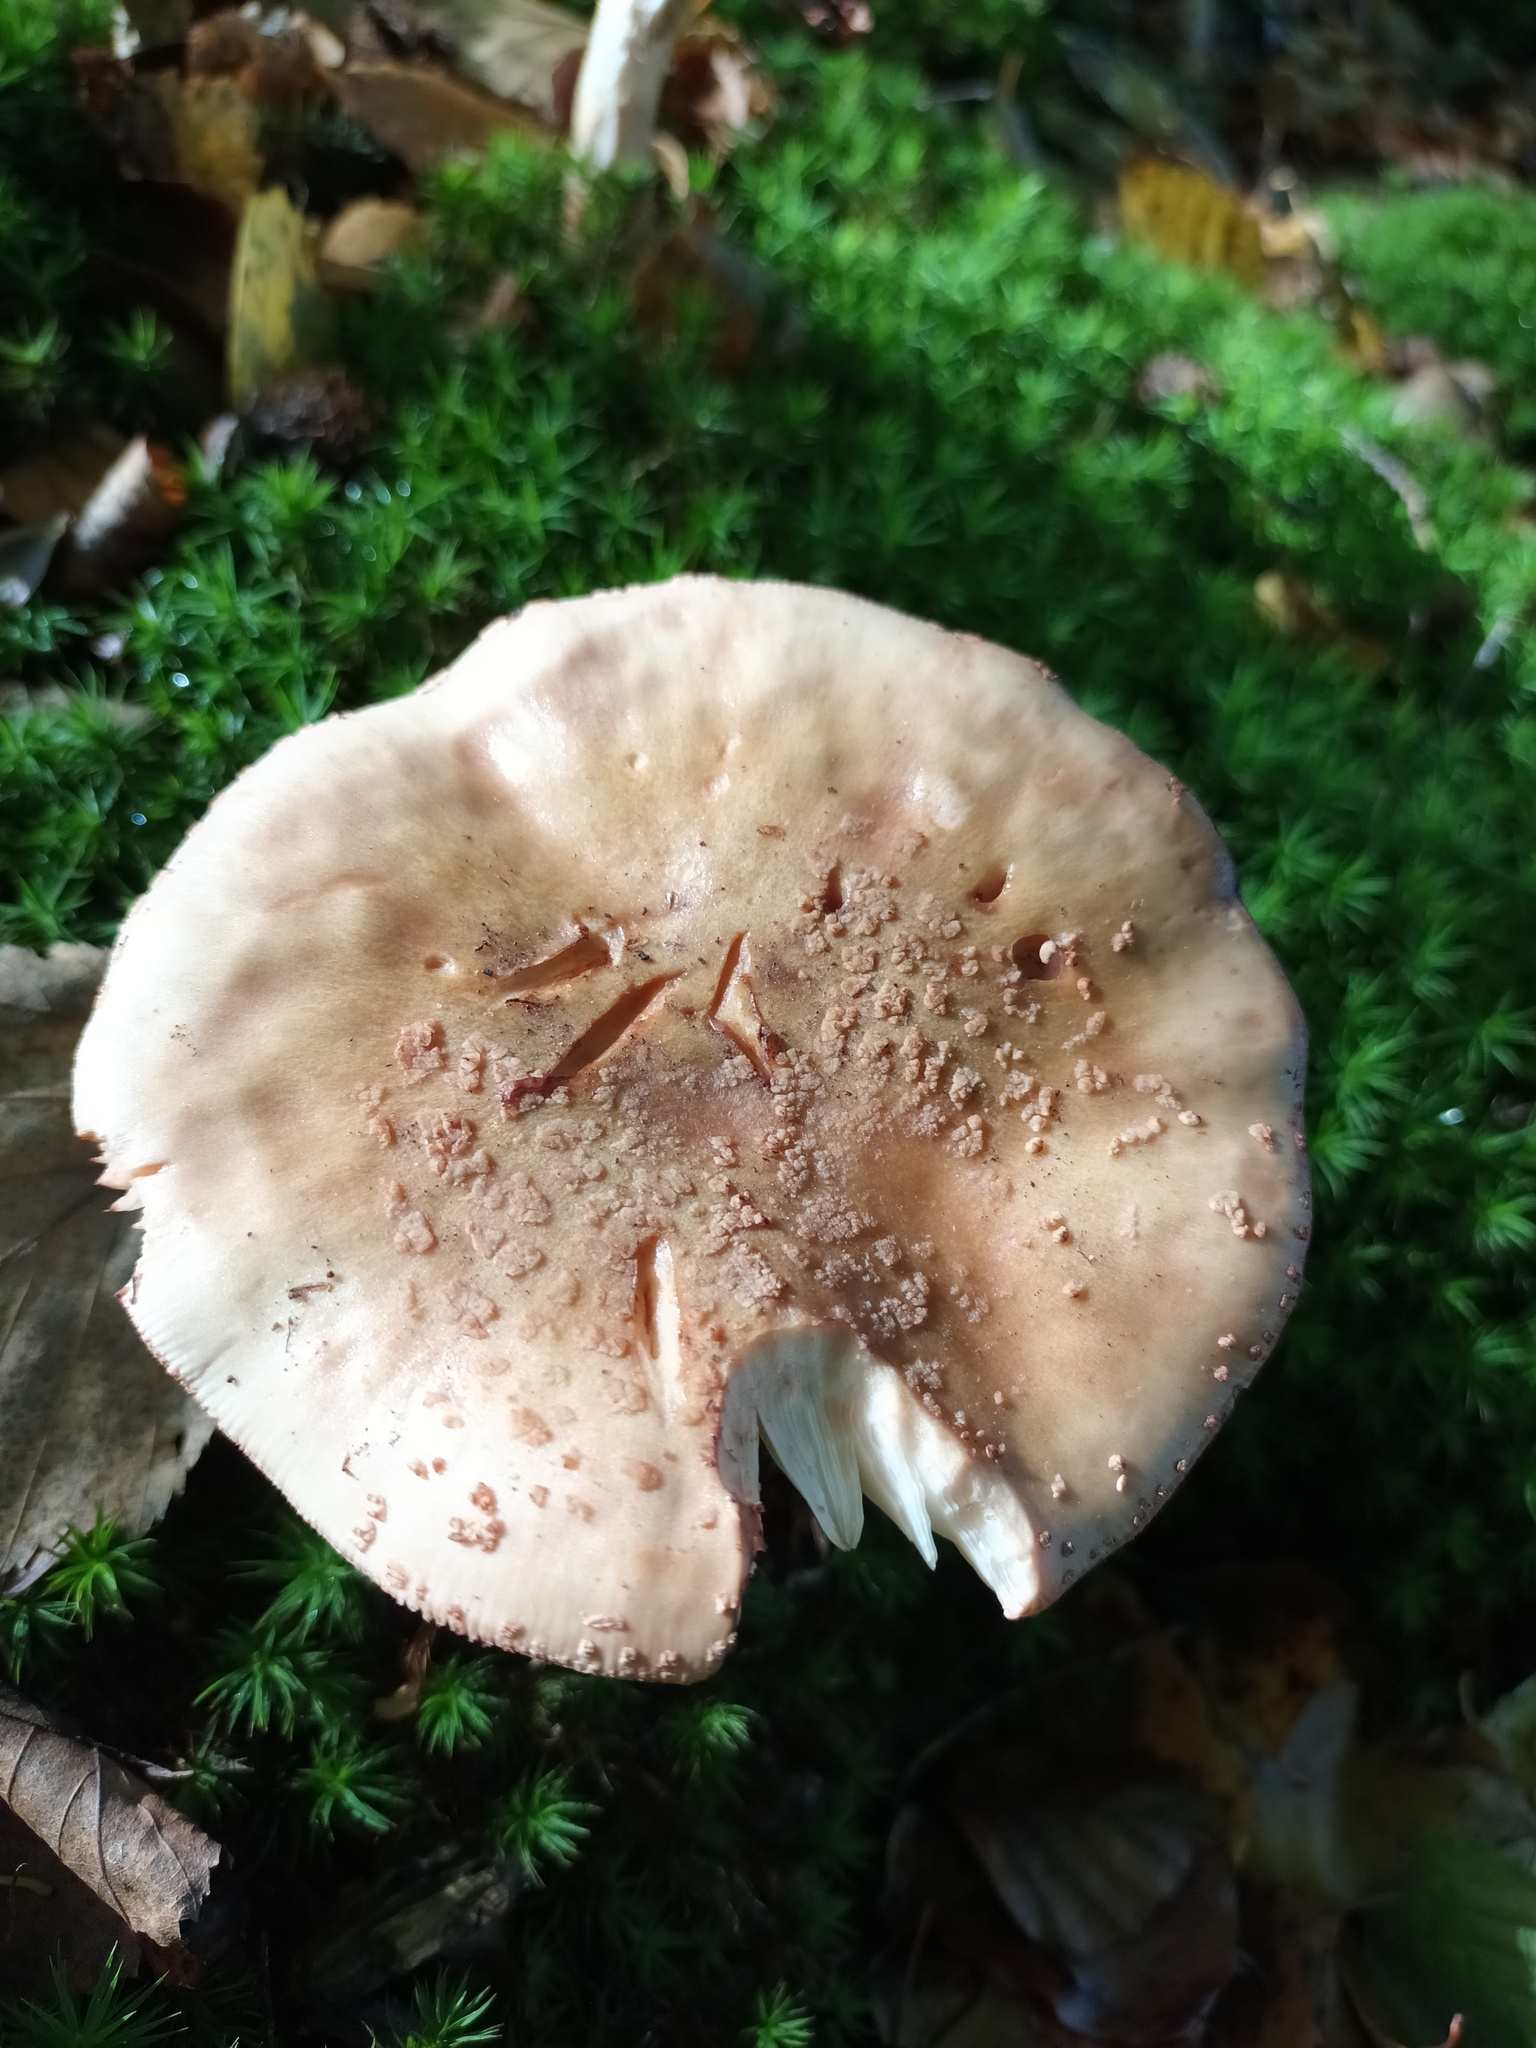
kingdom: Fungi
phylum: Basidiomycota
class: Agaricomycetes
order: Agaricales
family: Amanitaceae
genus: Amanita
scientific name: Amanita rubescens
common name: Blusher
